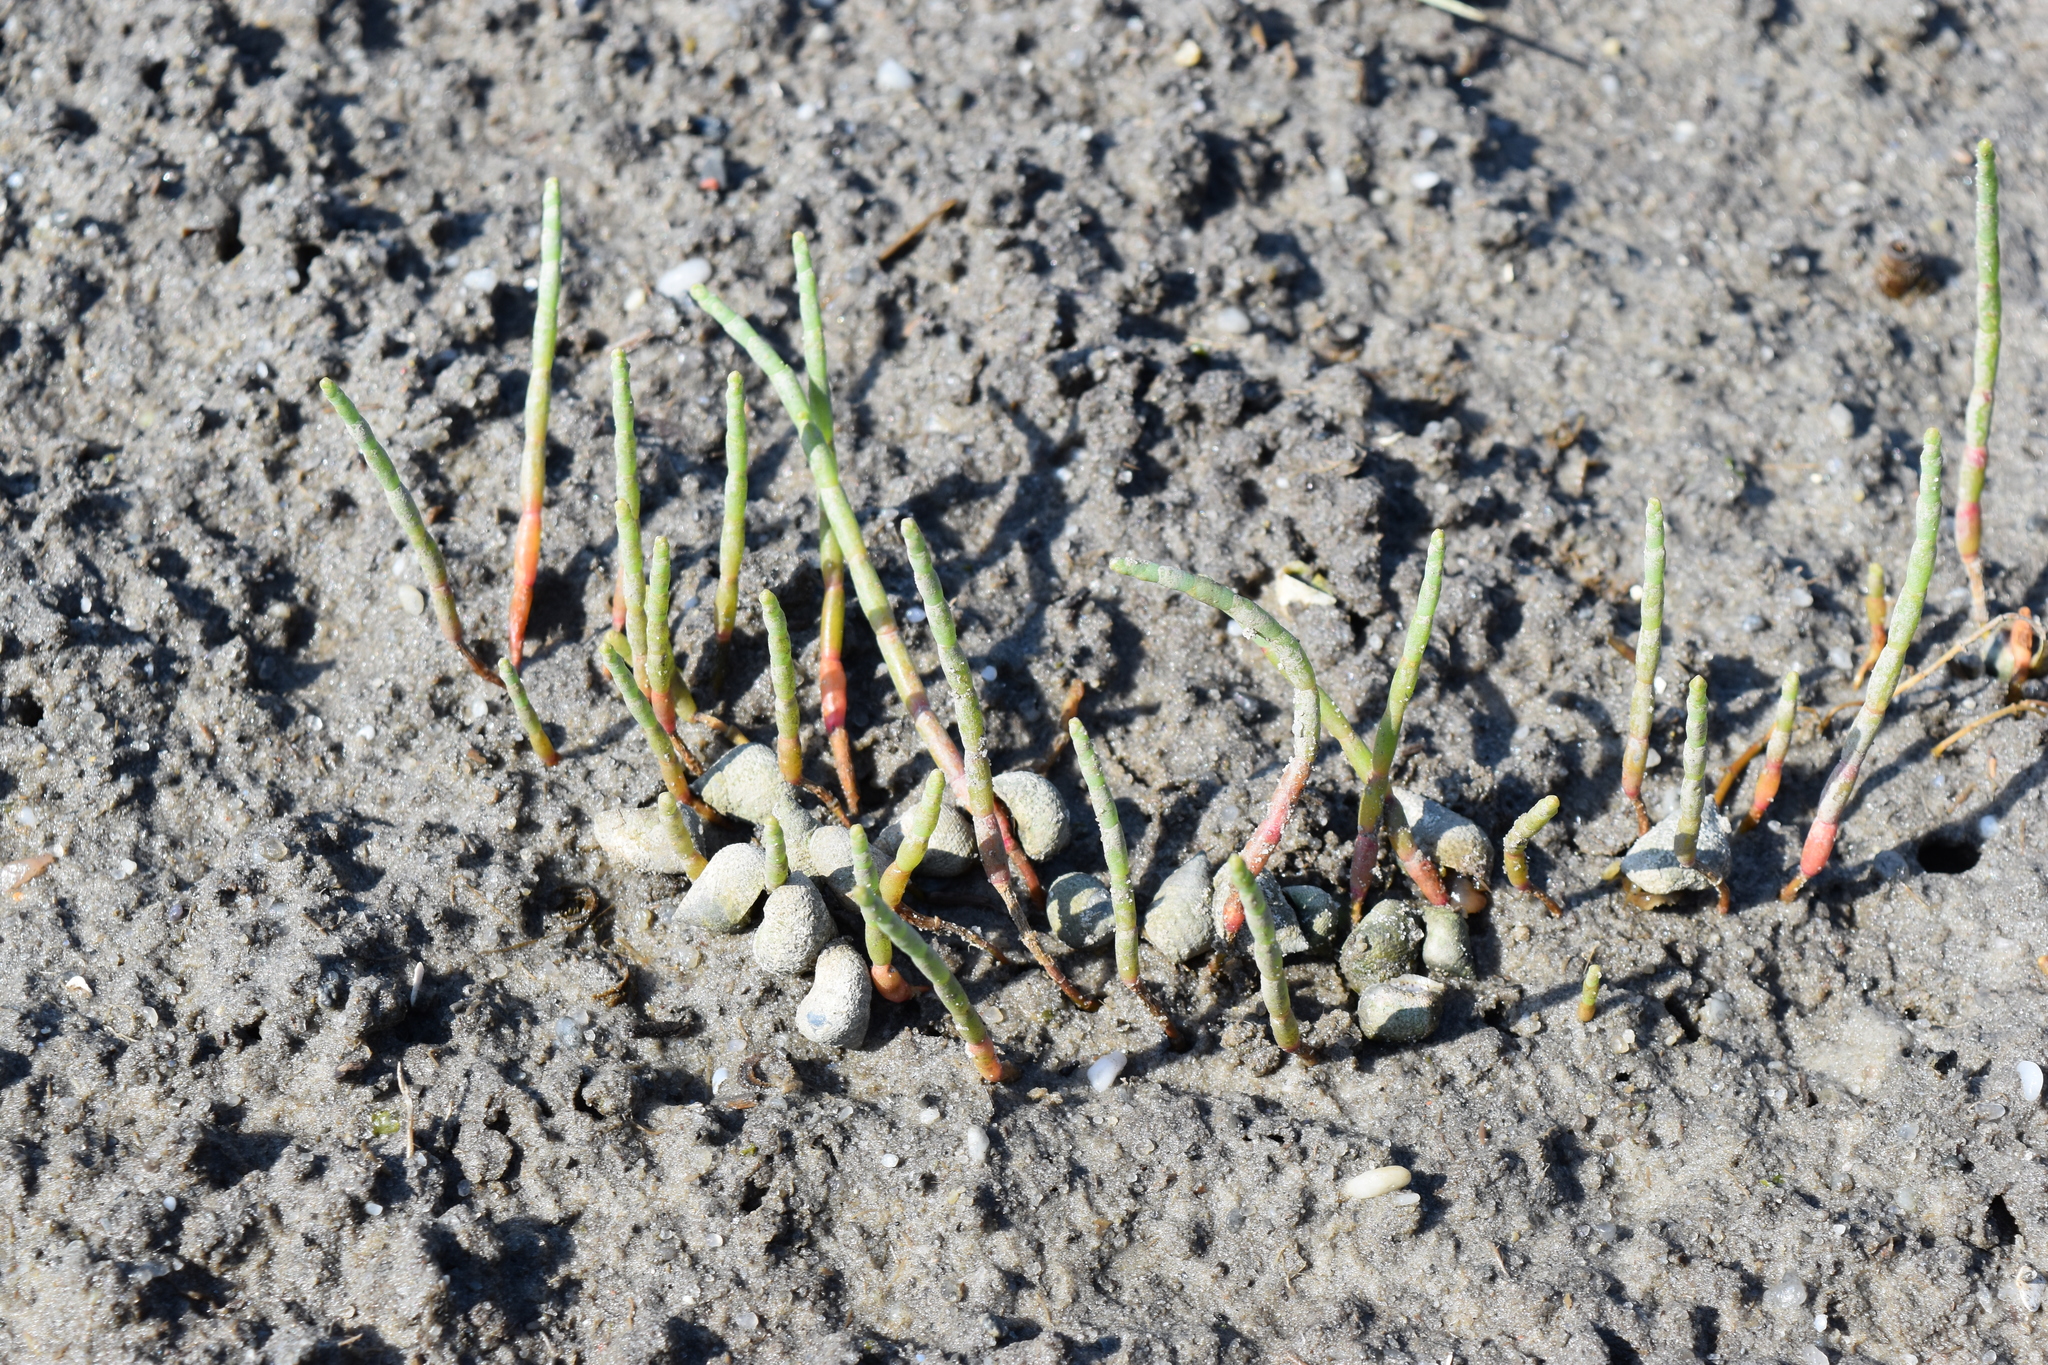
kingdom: Animalia
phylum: Mollusca
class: Gastropoda
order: Littorinimorpha
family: Littorinidae
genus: Littoraria
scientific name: Littoraria irrorata
